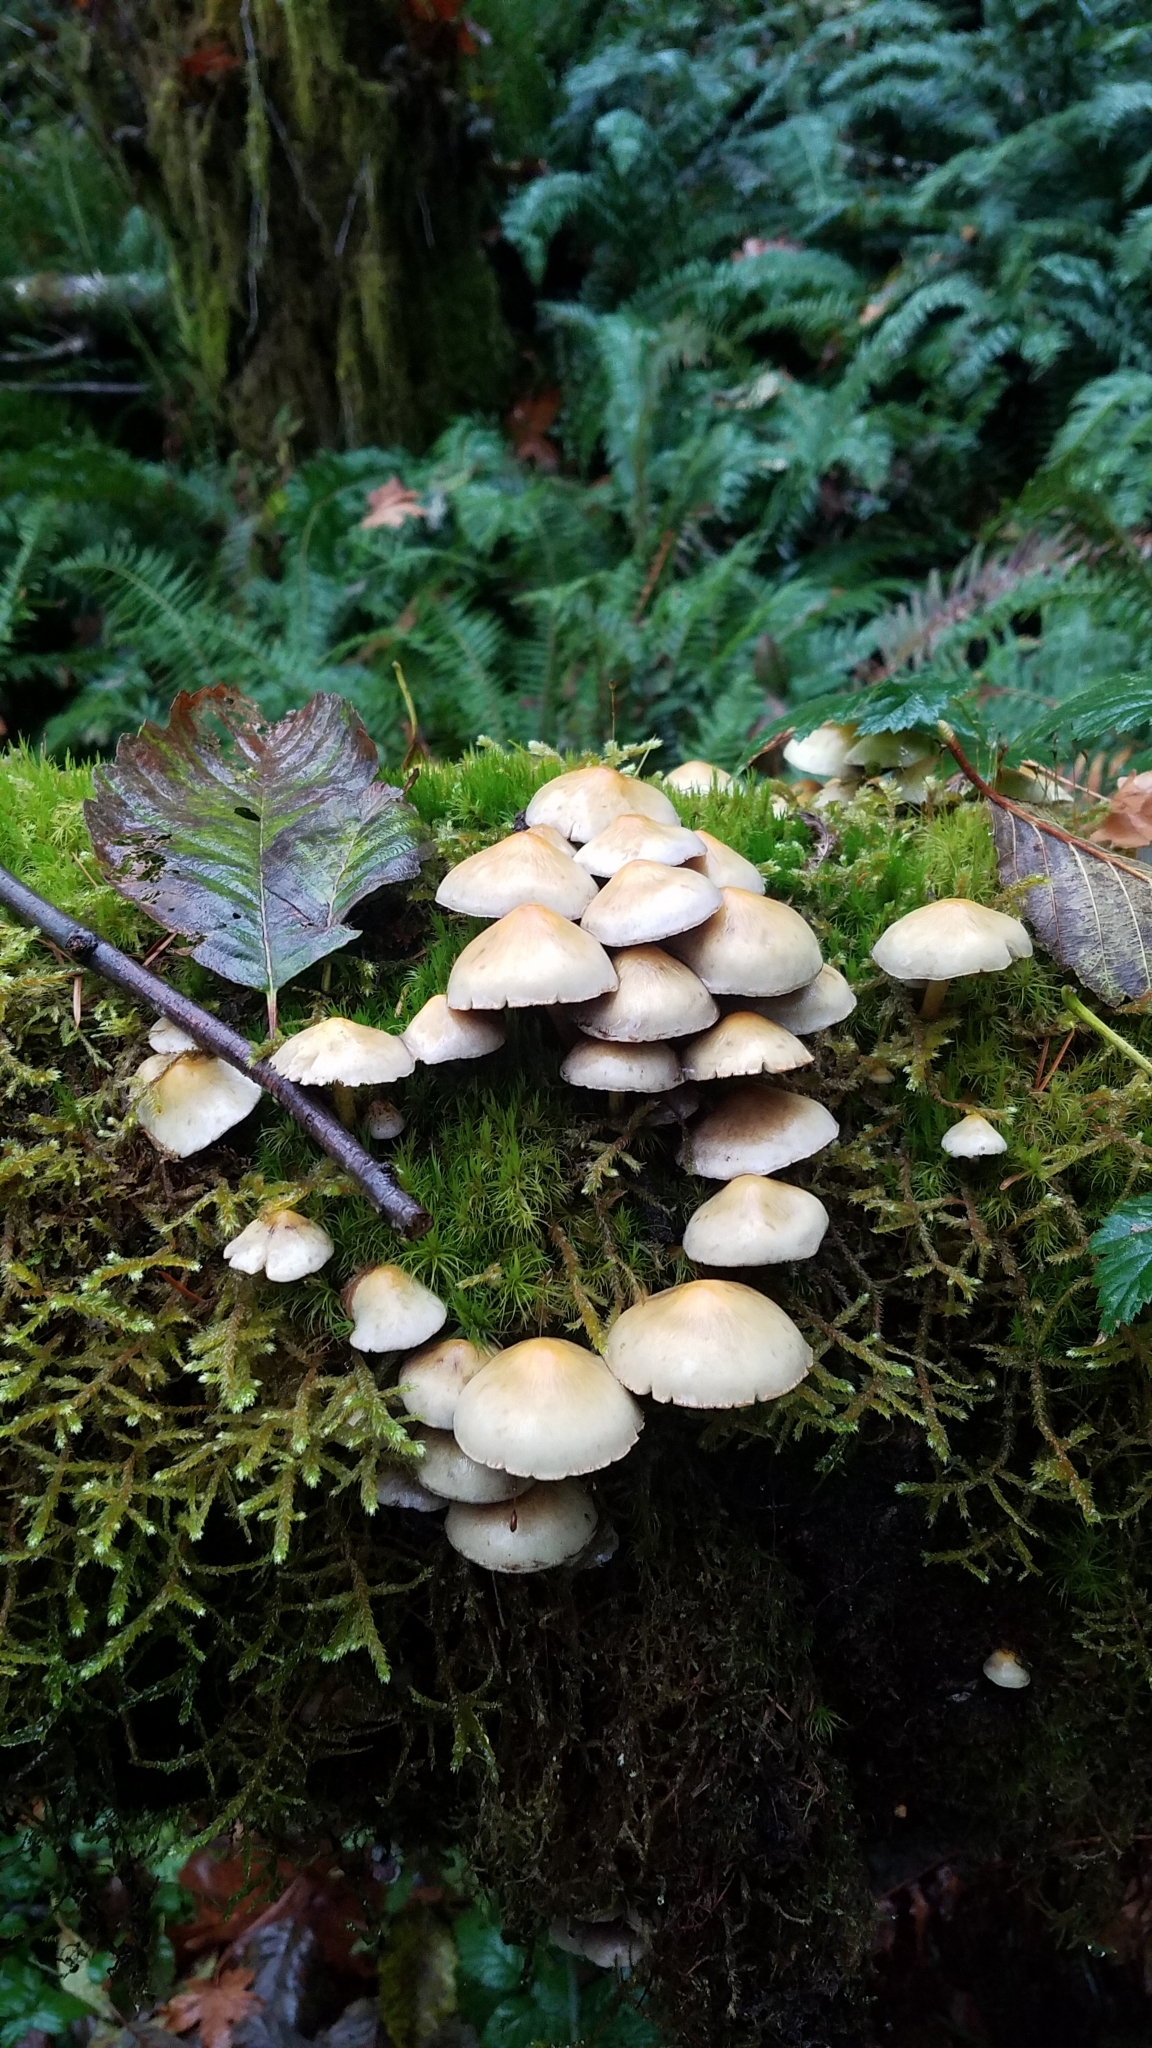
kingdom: Fungi
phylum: Basidiomycota
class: Agaricomycetes
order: Agaricales
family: Strophariaceae
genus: Hypholoma
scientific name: Hypholoma fasciculare
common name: Sulphur tuft
